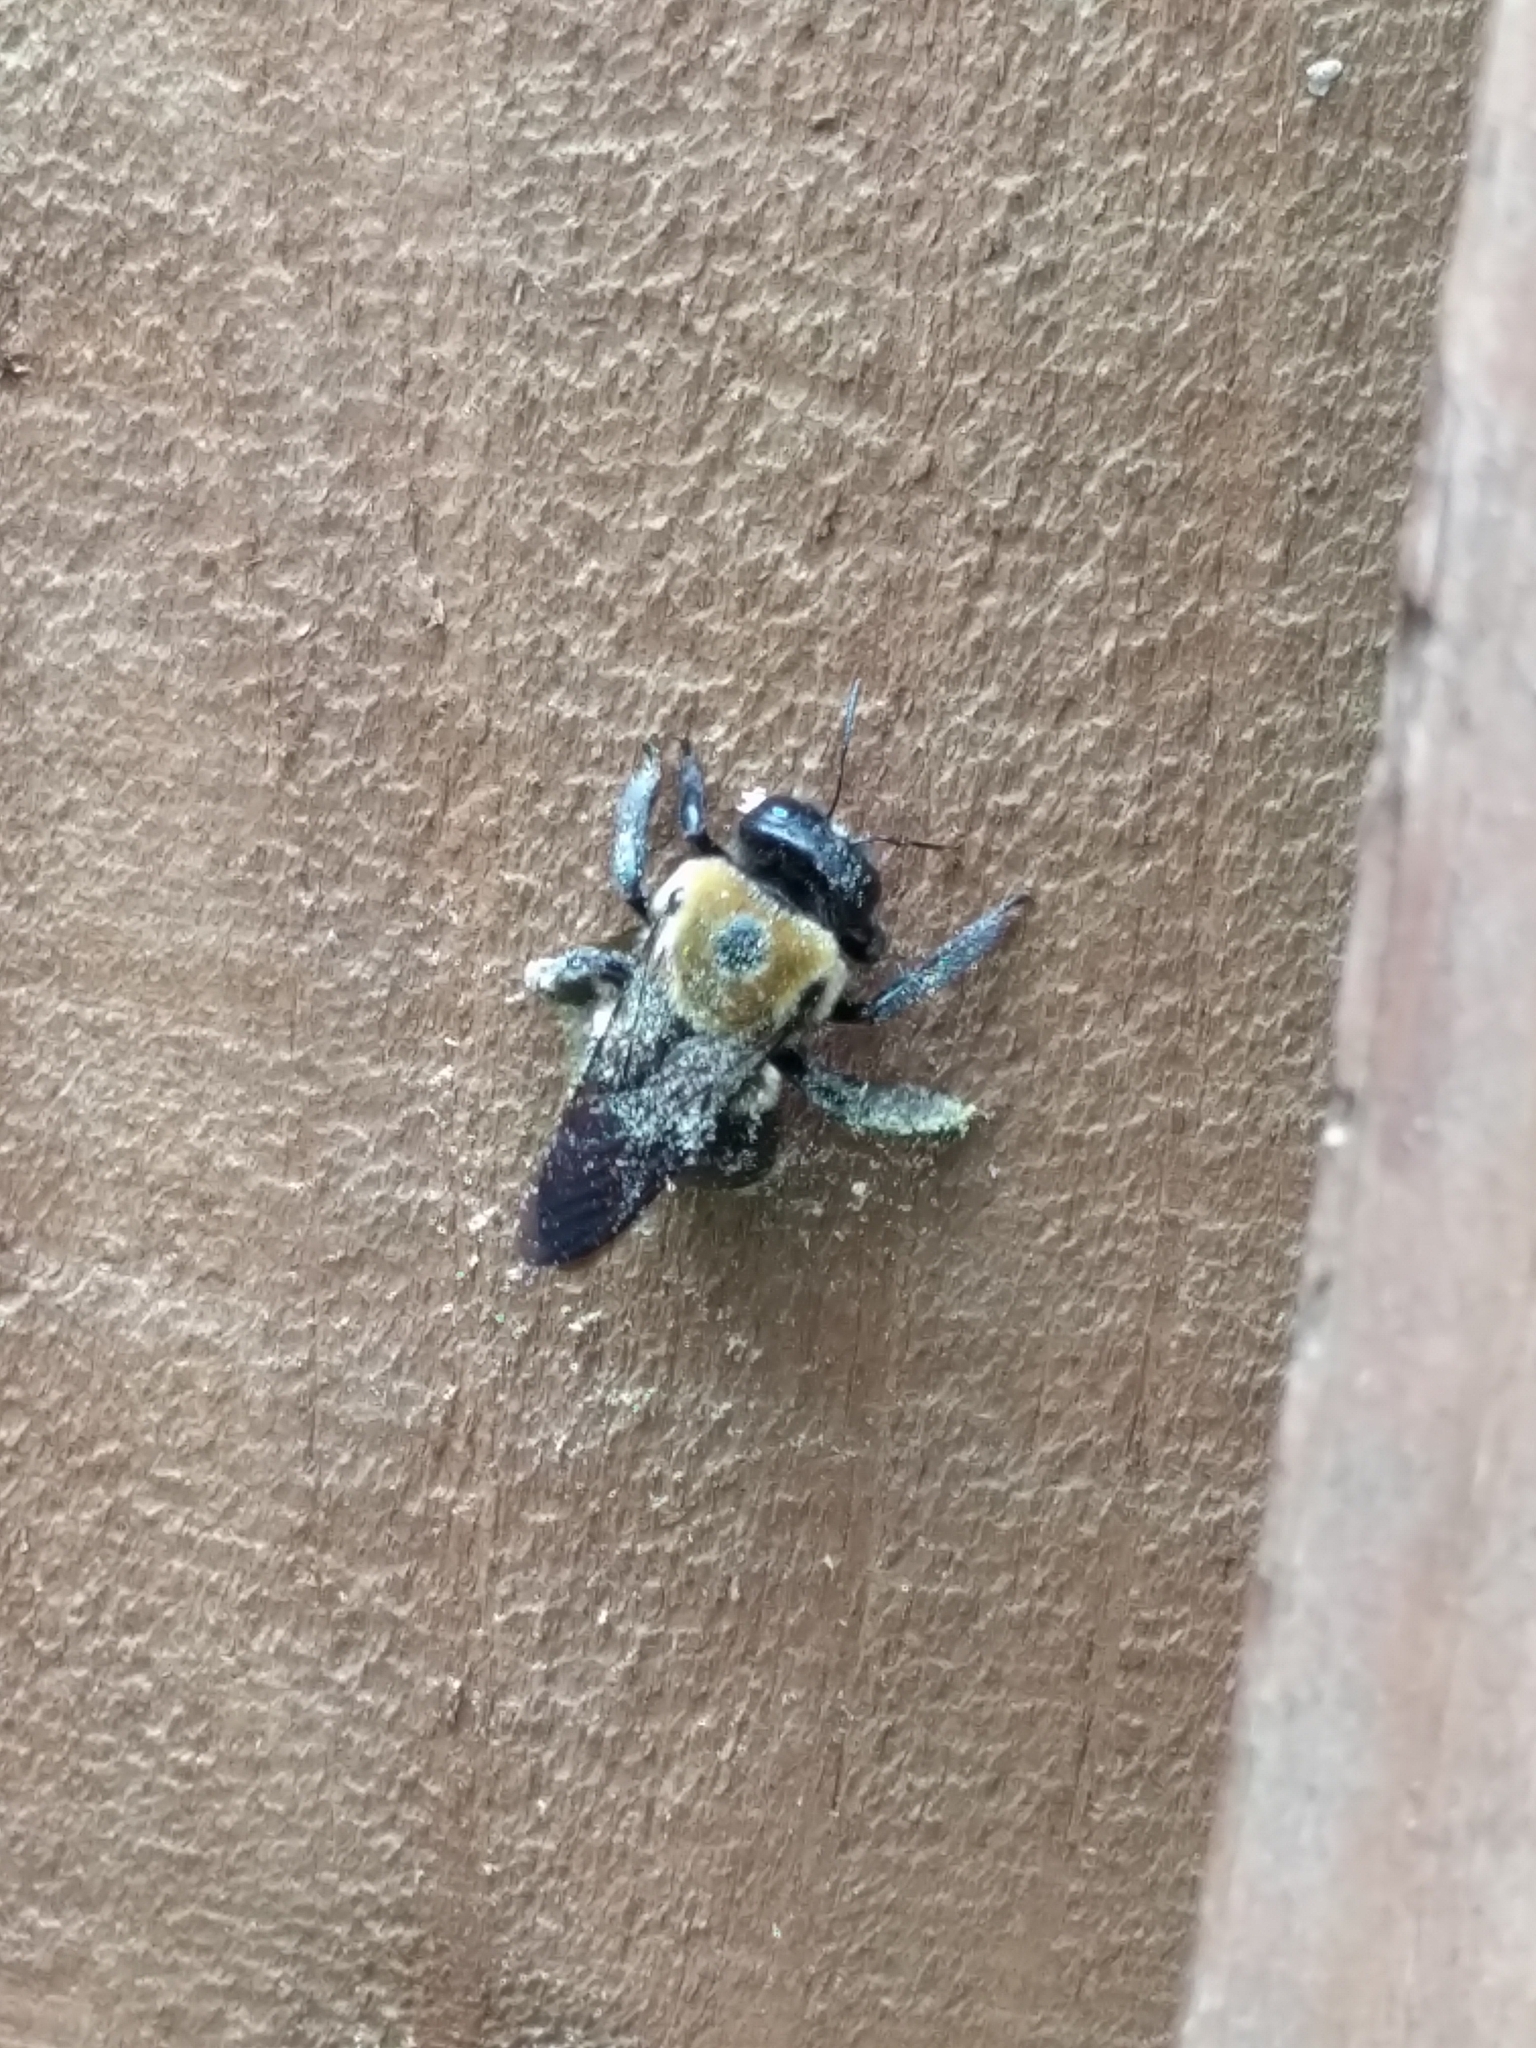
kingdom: Animalia
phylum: Arthropoda
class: Insecta
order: Hymenoptera
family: Apidae
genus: Xylocopa
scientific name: Xylocopa virginica
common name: Carpenter bee
